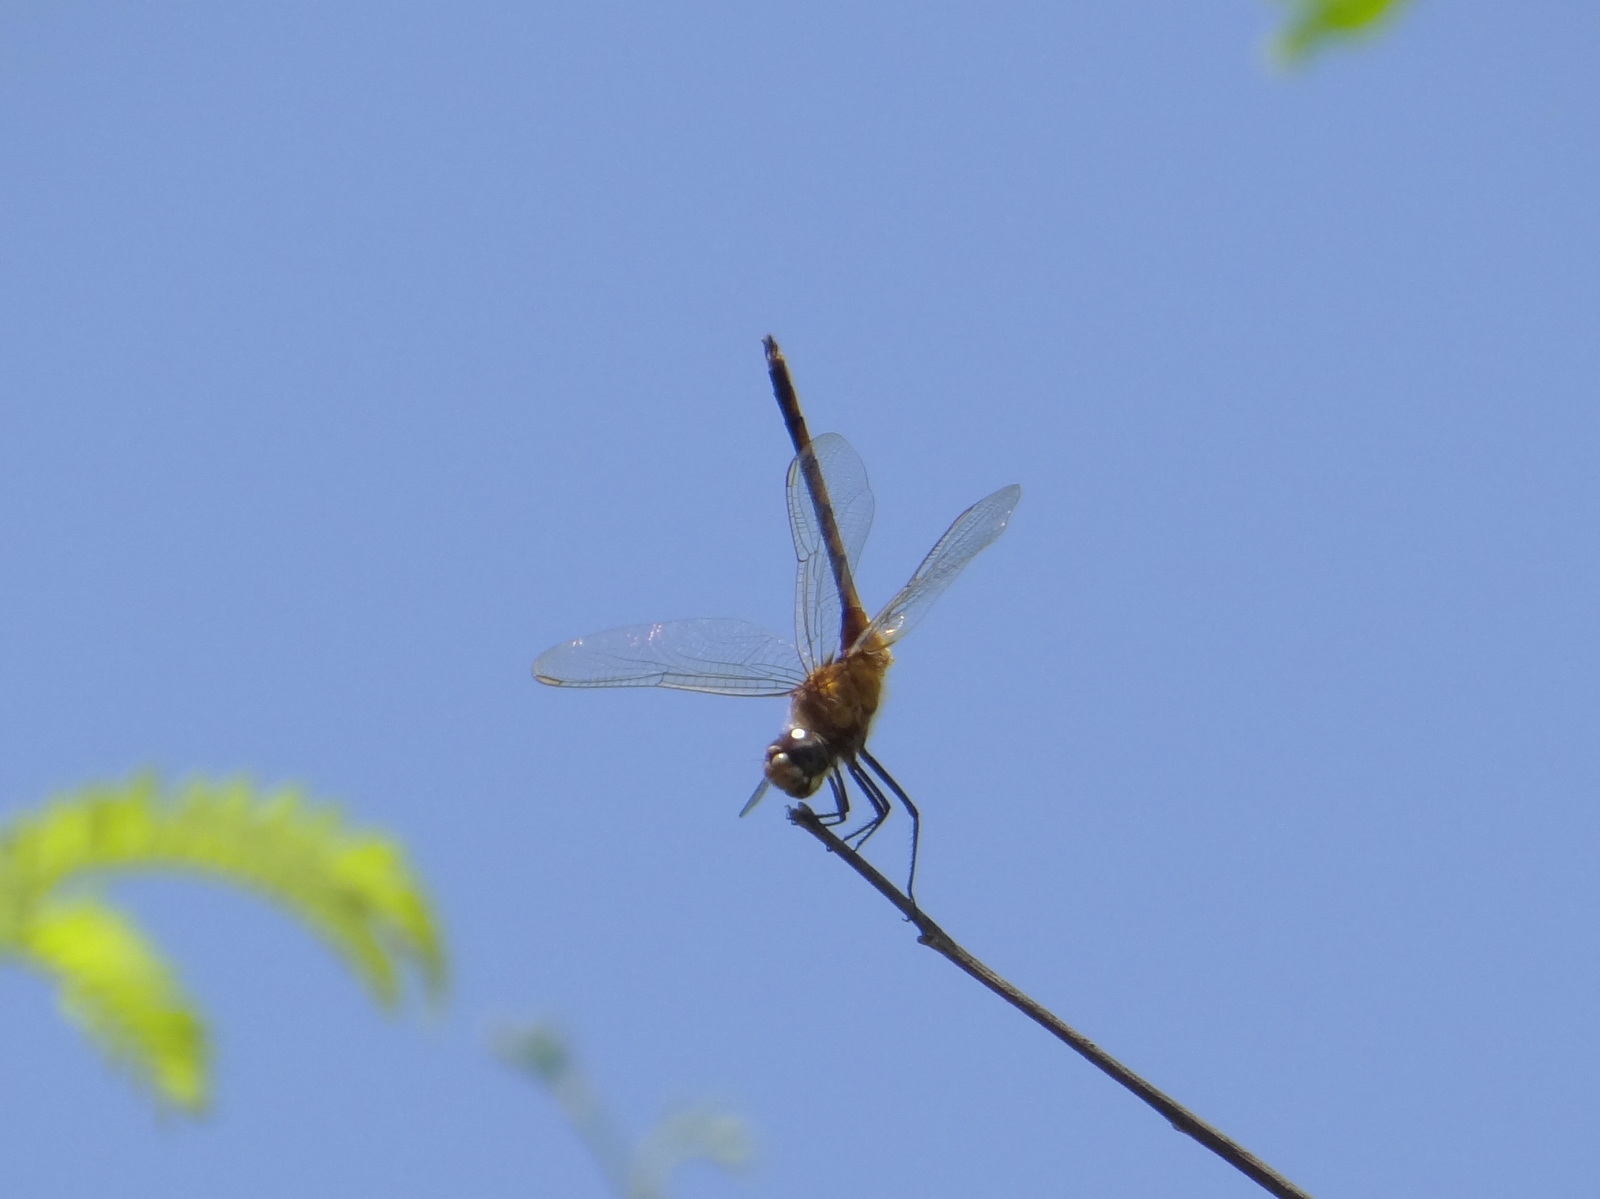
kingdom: Animalia
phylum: Arthropoda
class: Insecta
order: Odonata
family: Libellulidae
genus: Brachymesia
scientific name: Brachymesia herbida
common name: Tawny pennant
